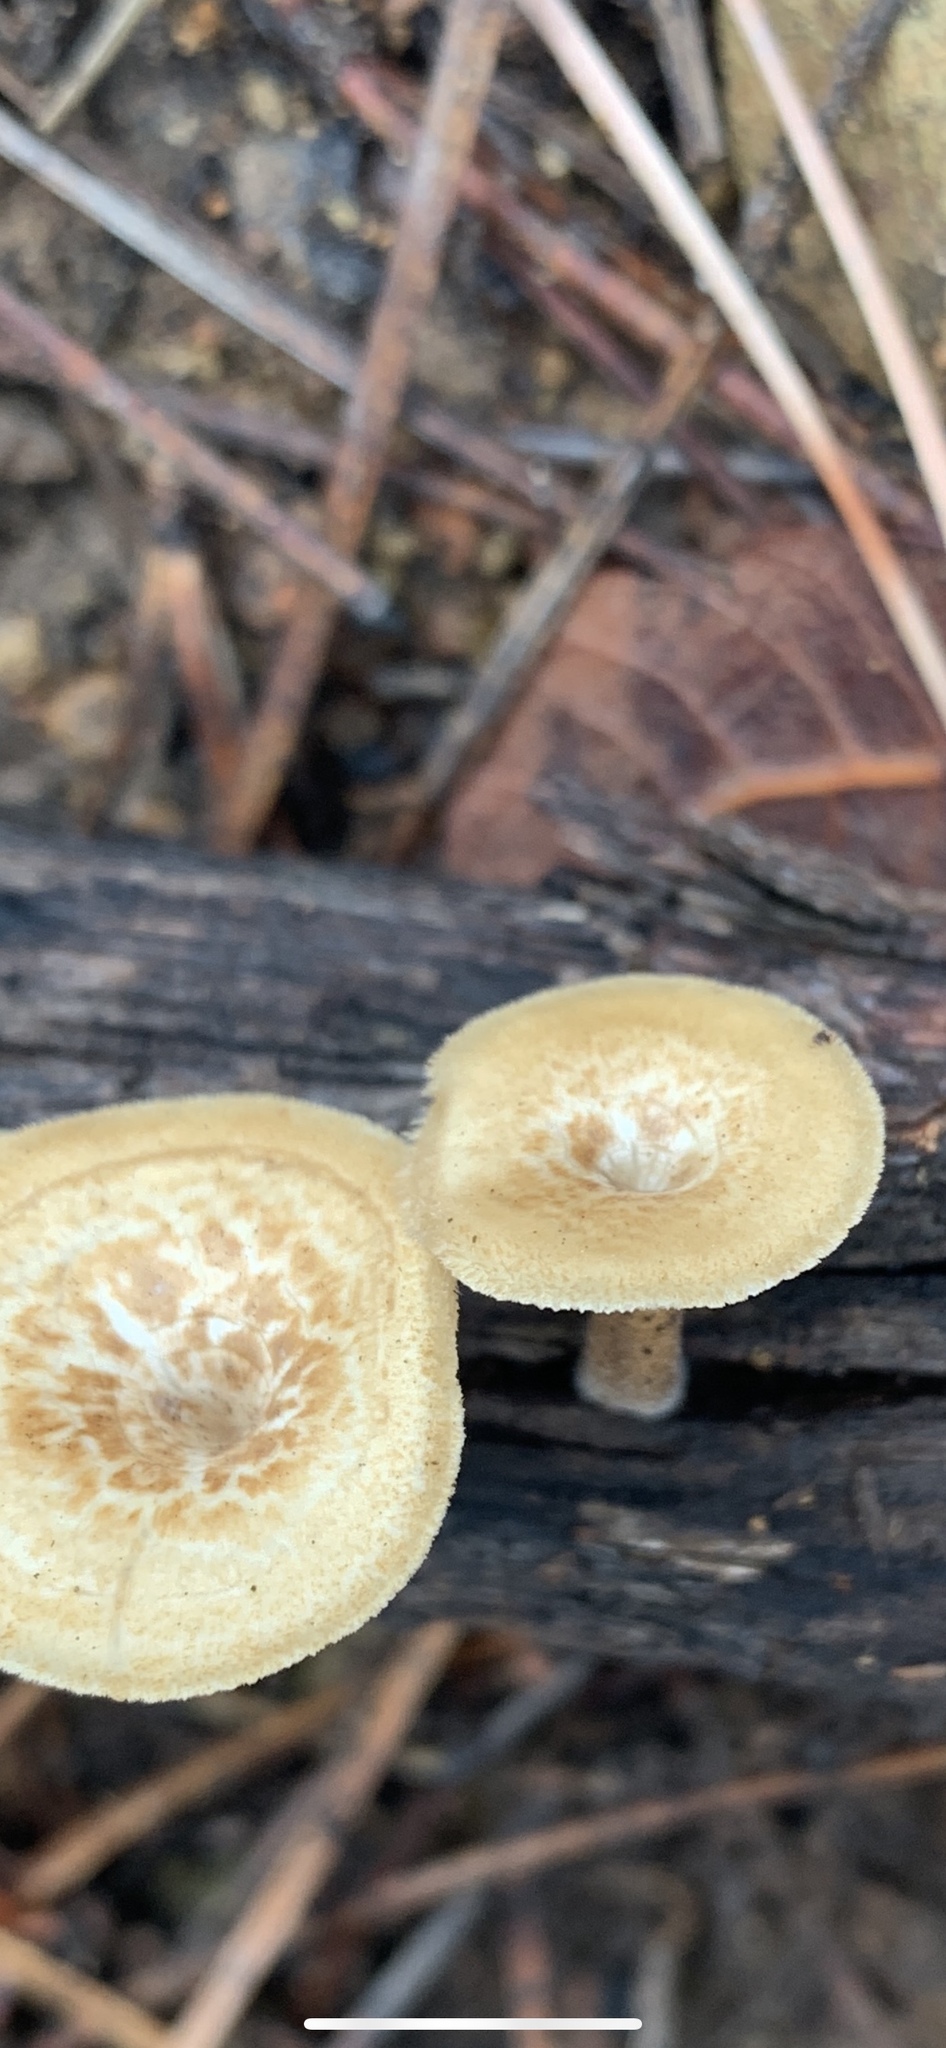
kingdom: Fungi
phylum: Basidiomycota
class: Agaricomycetes
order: Polyporales
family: Polyporaceae
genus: Lentinus
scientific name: Lentinus arcularius
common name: Spring polypore
